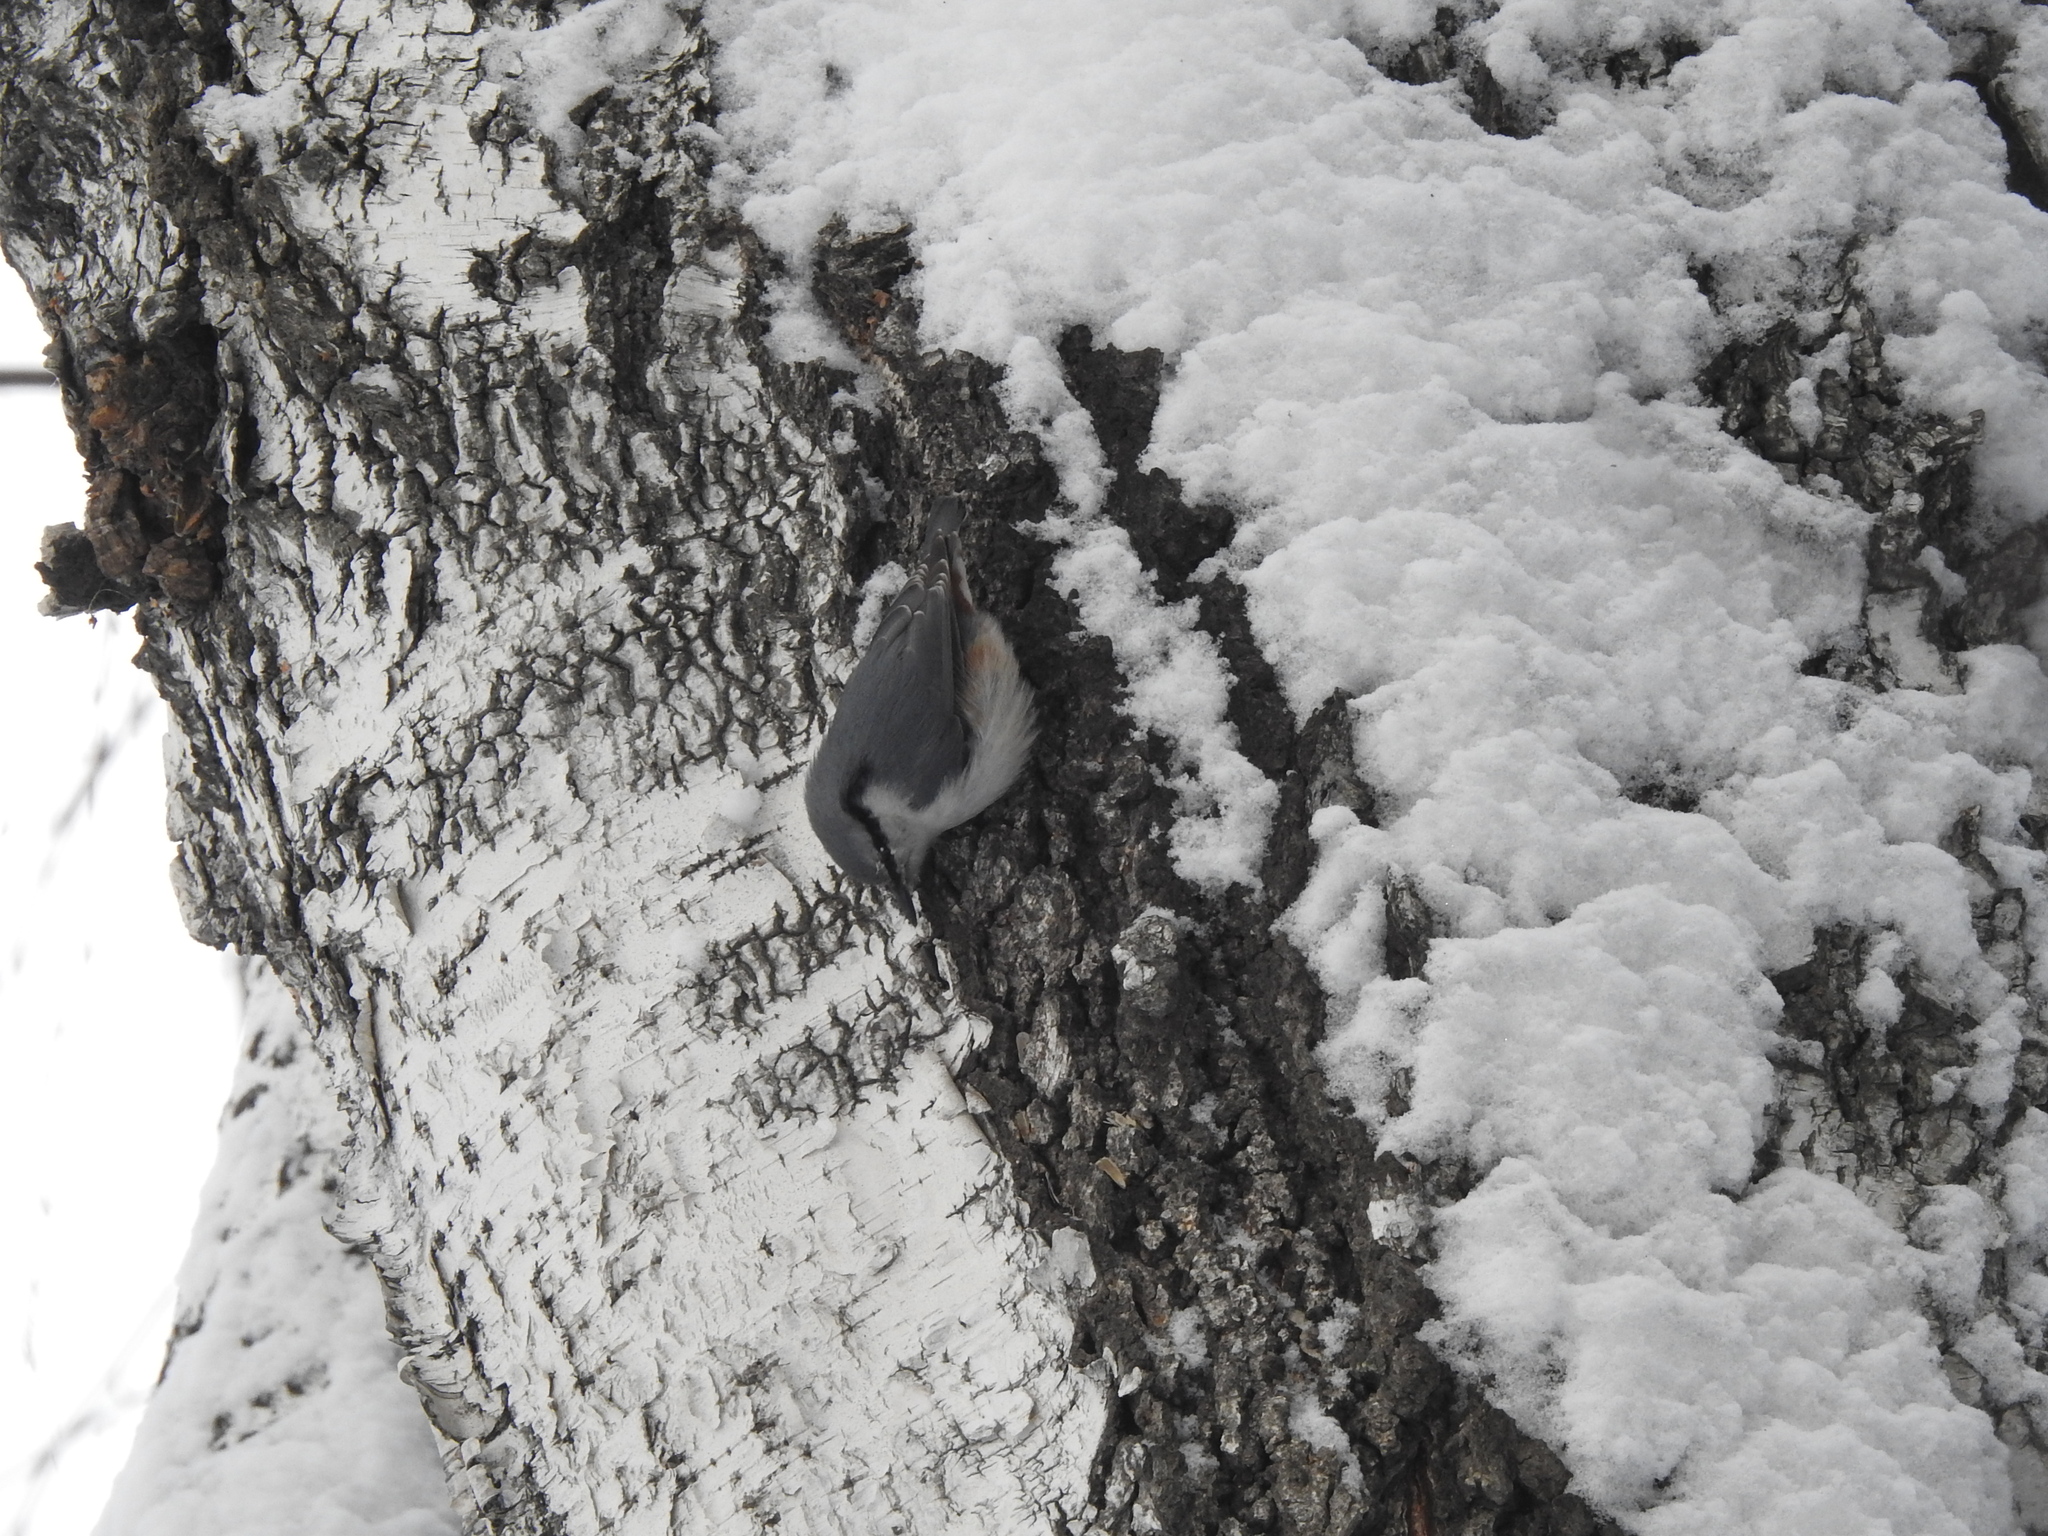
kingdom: Animalia
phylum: Chordata
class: Aves
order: Passeriformes
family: Sittidae
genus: Sitta
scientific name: Sitta europaea
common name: Eurasian nuthatch
